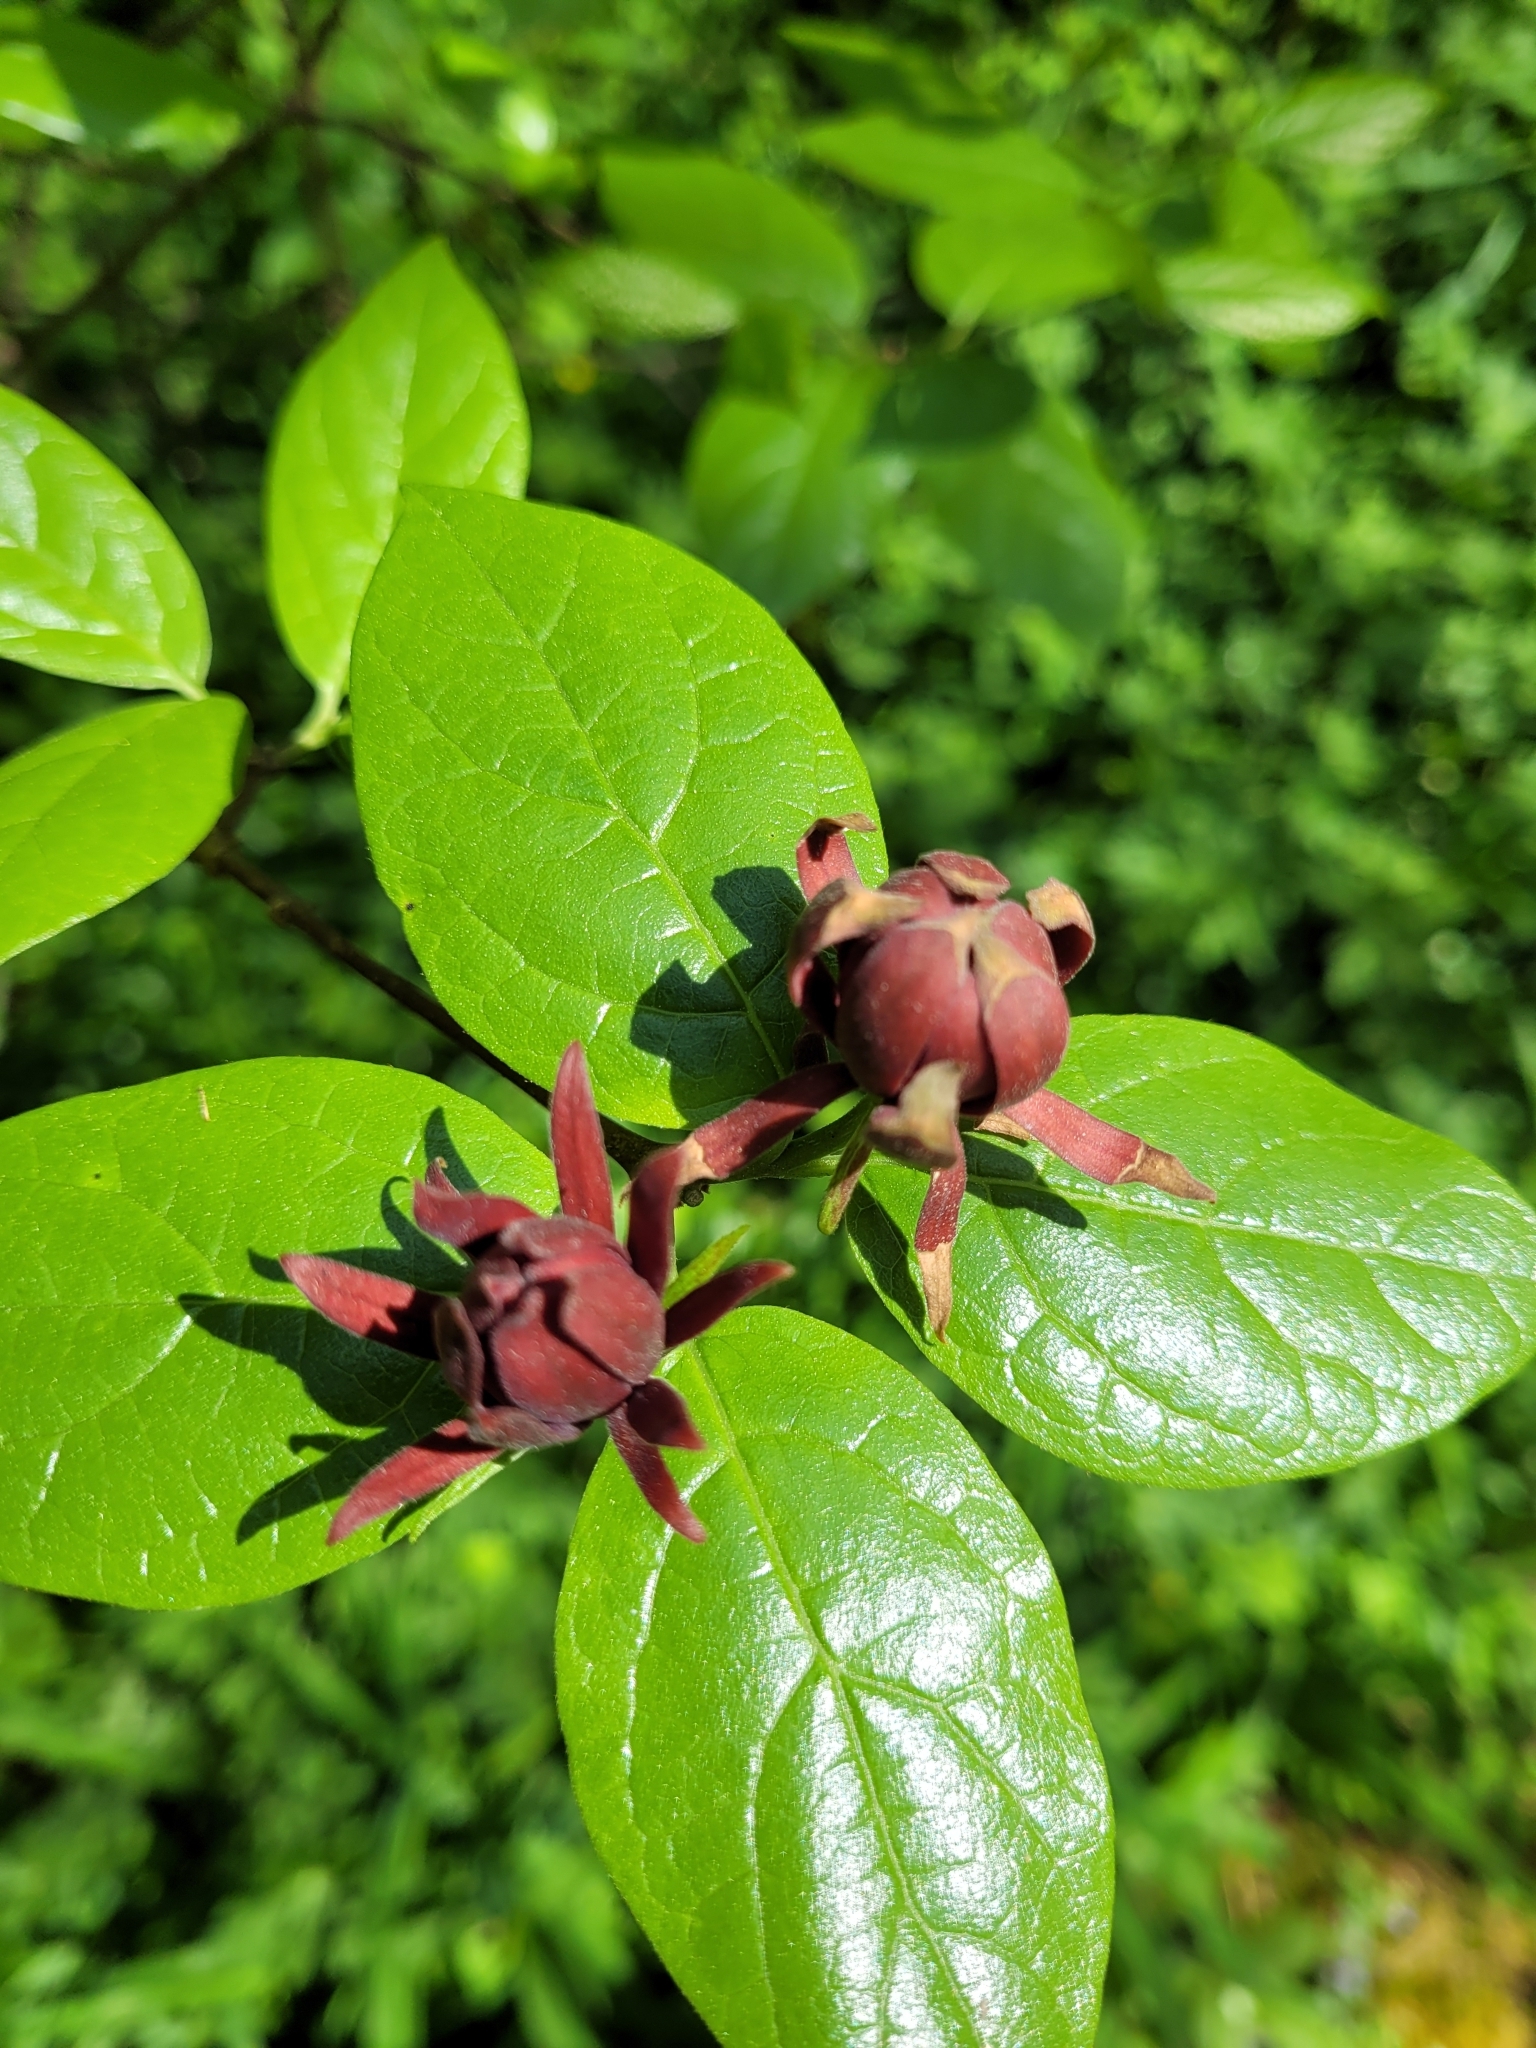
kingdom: Plantae
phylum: Tracheophyta
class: Magnoliopsida
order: Laurales
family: Calycanthaceae
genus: Calycanthus
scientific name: Calycanthus floridus
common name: Carolina-allspice
